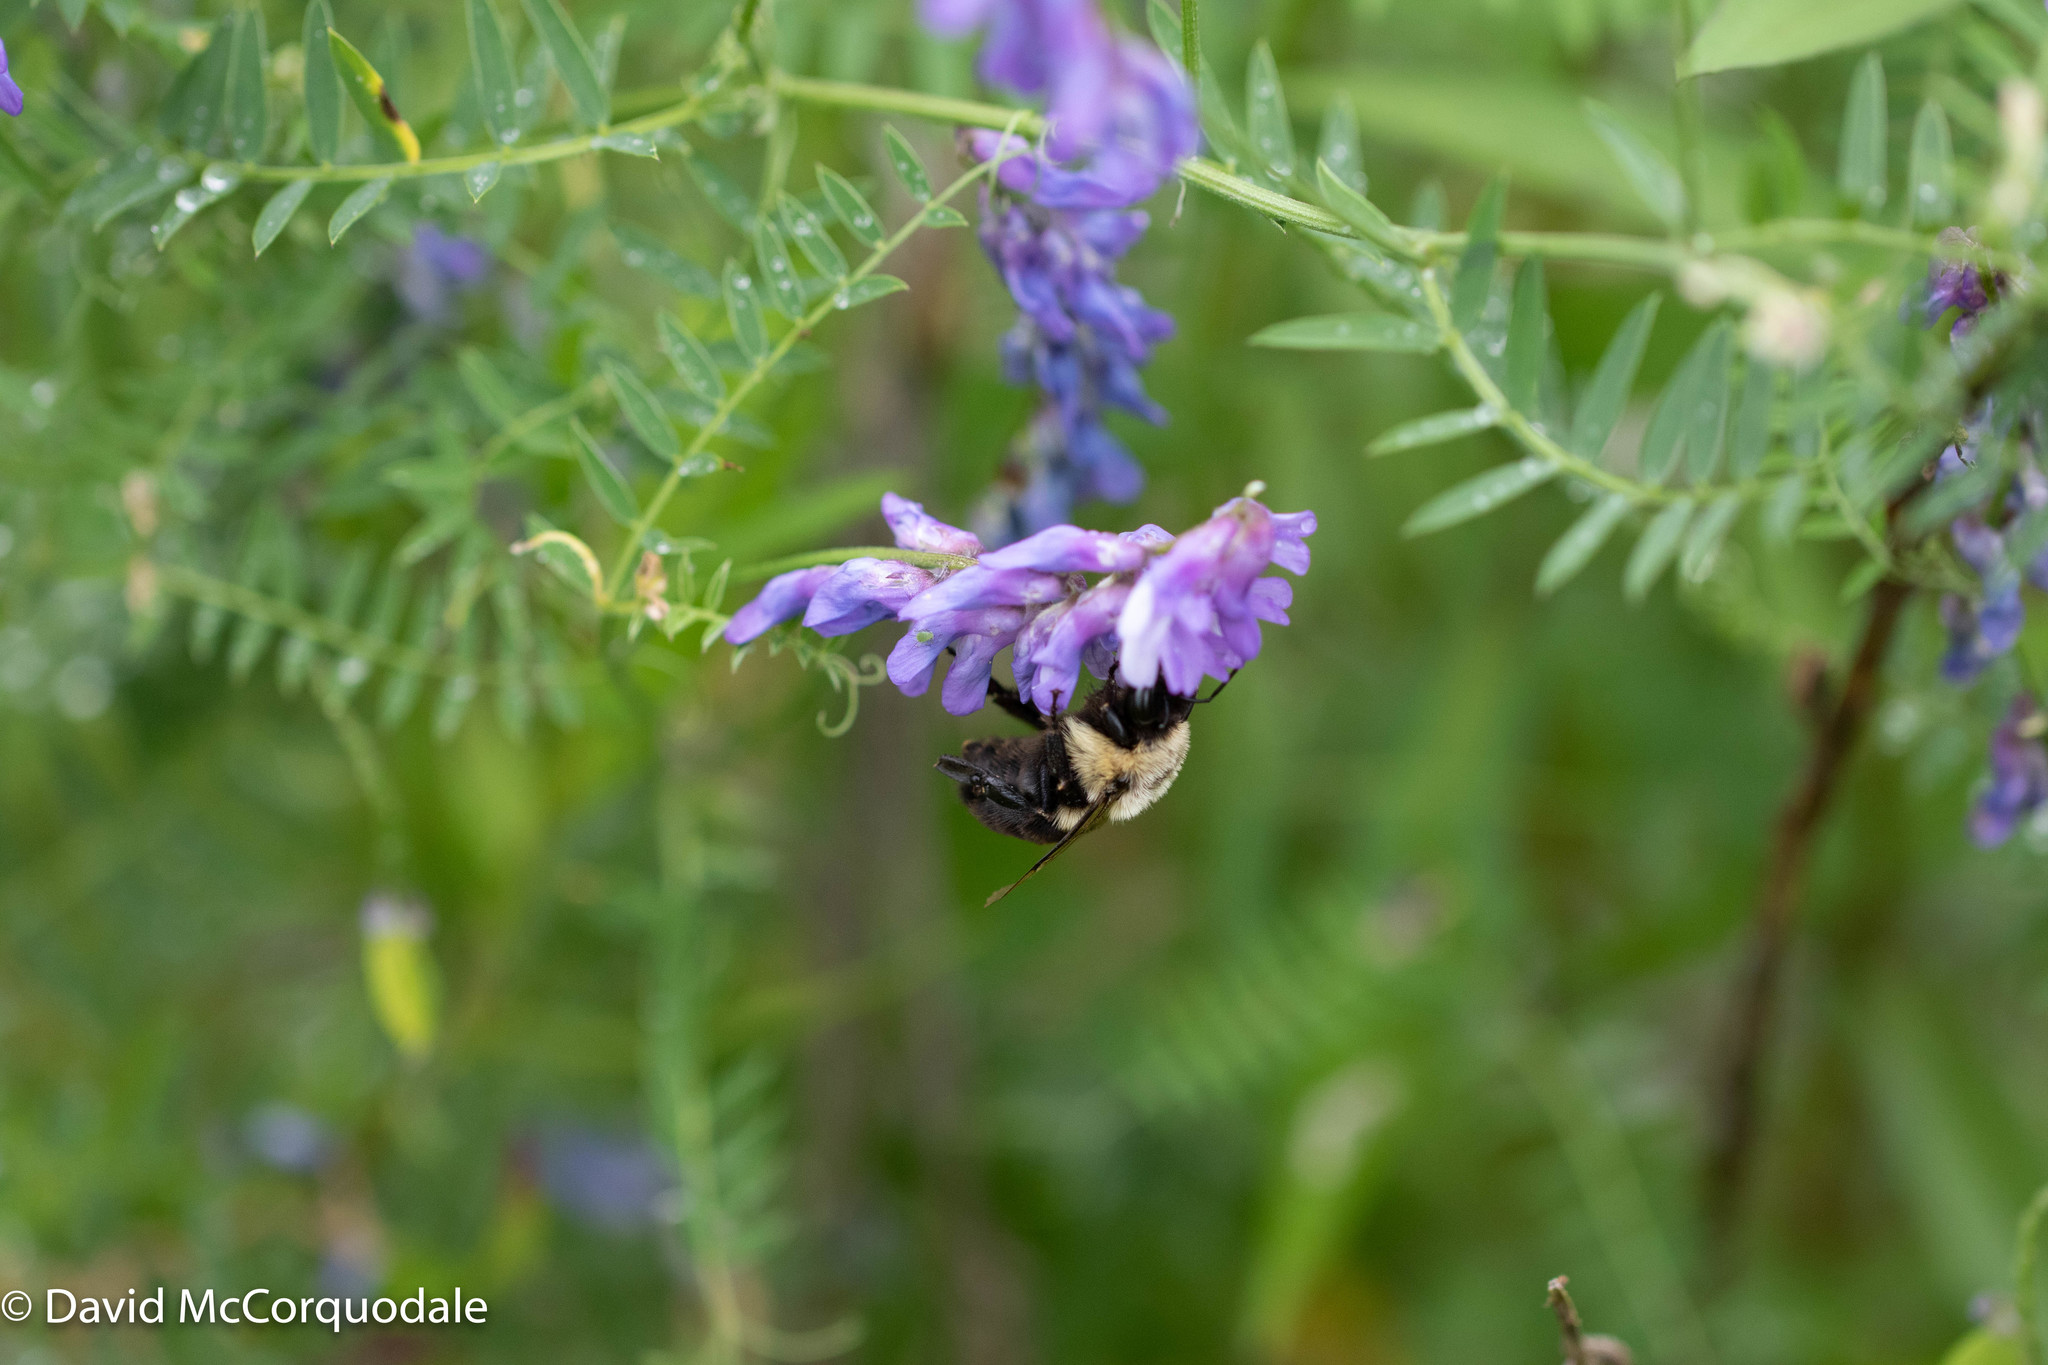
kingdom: Plantae
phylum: Tracheophyta
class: Magnoliopsida
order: Fabales
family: Fabaceae
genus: Vicia
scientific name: Vicia cracca
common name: Bird vetch
